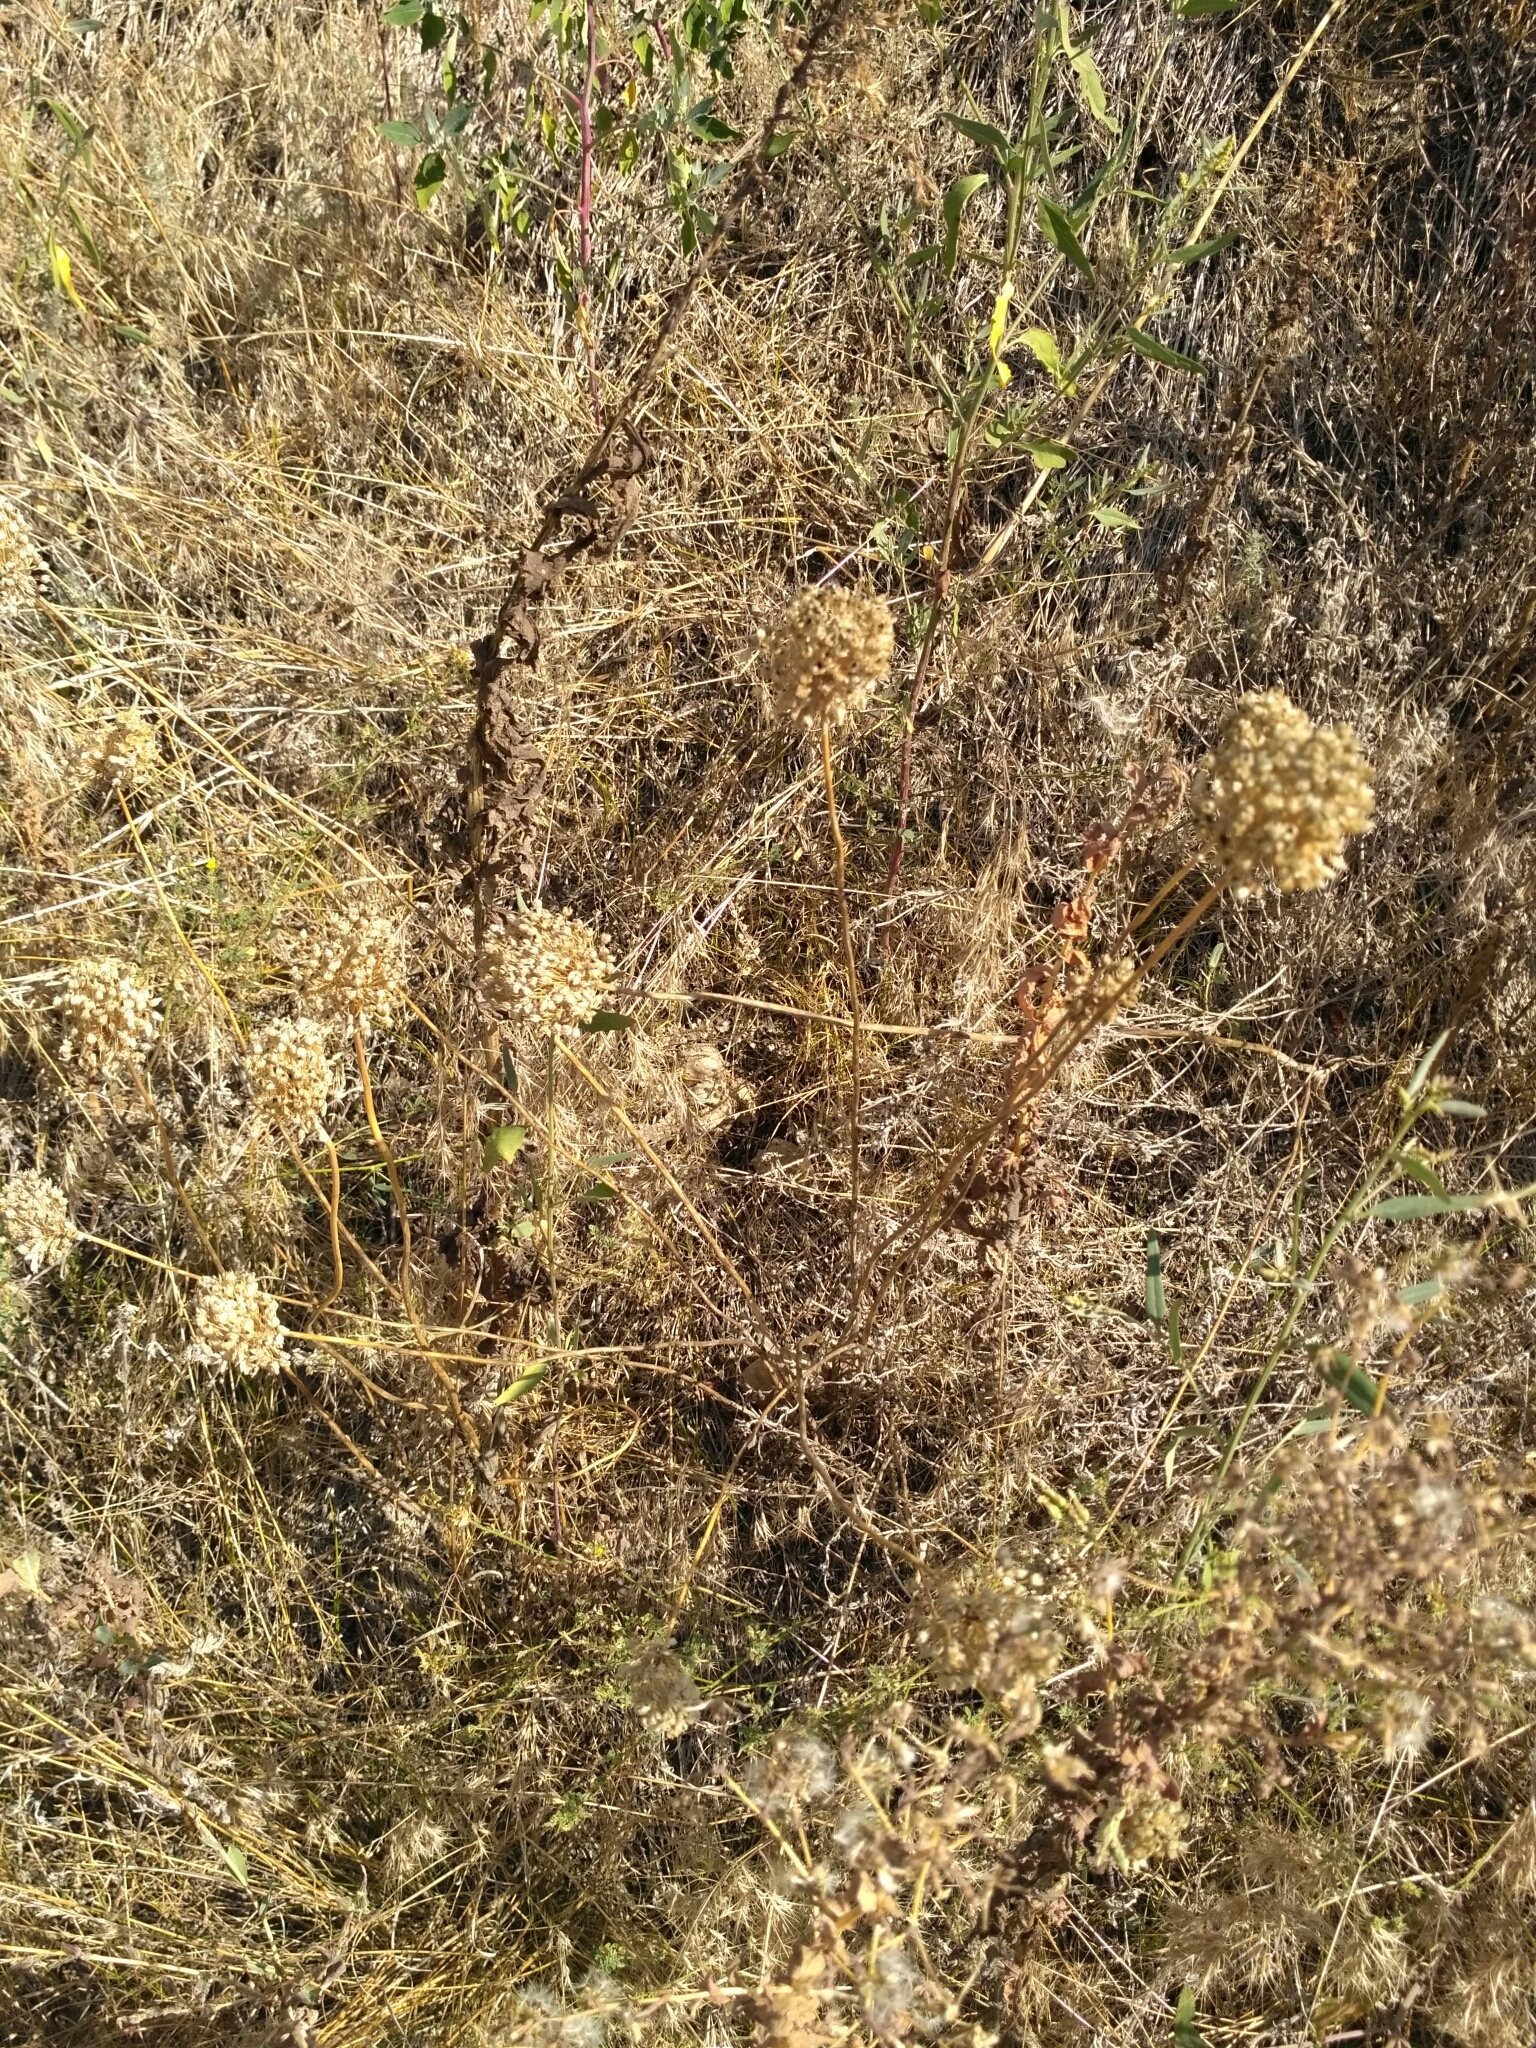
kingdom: Plantae
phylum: Tracheophyta
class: Liliopsida
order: Asparagales
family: Amaryllidaceae
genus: Allium
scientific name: Allium rotundum
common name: Sand leek
